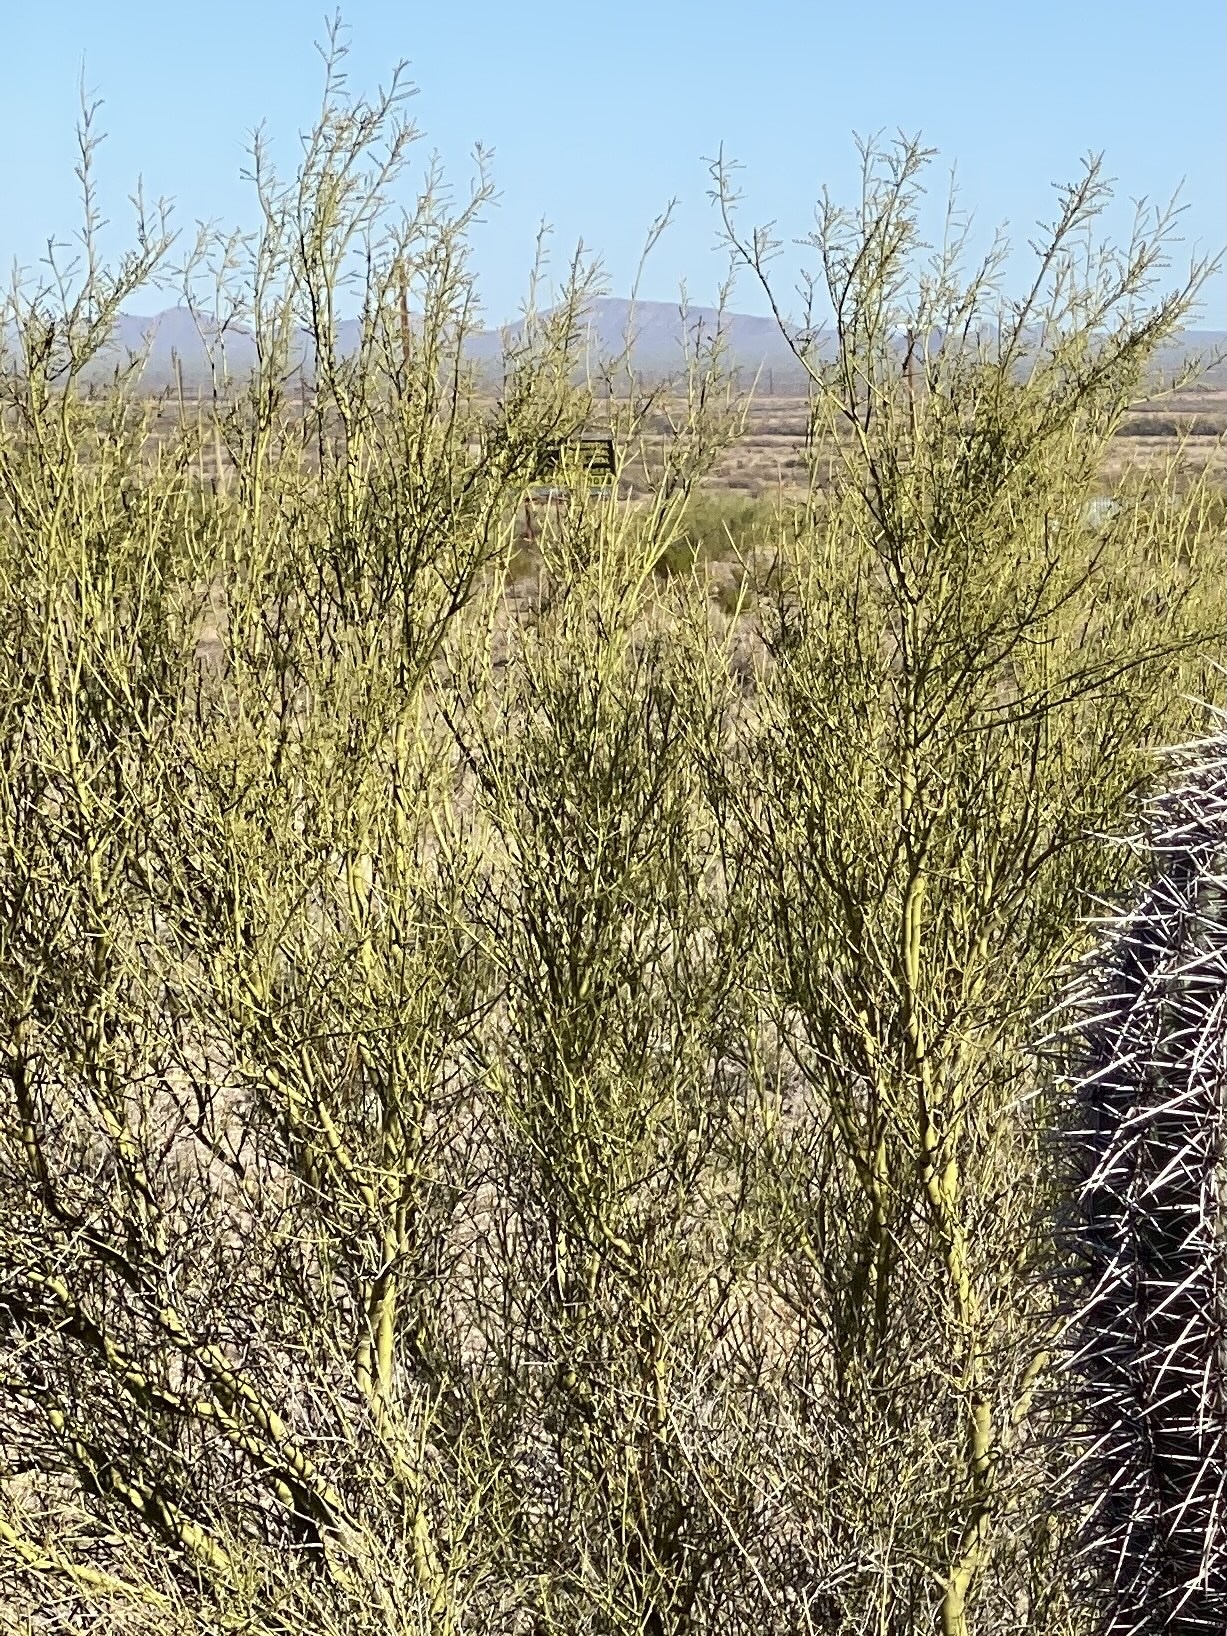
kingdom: Plantae
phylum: Tracheophyta
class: Magnoliopsida
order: Fabales
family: Fabaceae
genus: Parkinsonia
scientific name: Parkinsonia microphylla
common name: Yellow paloverde
